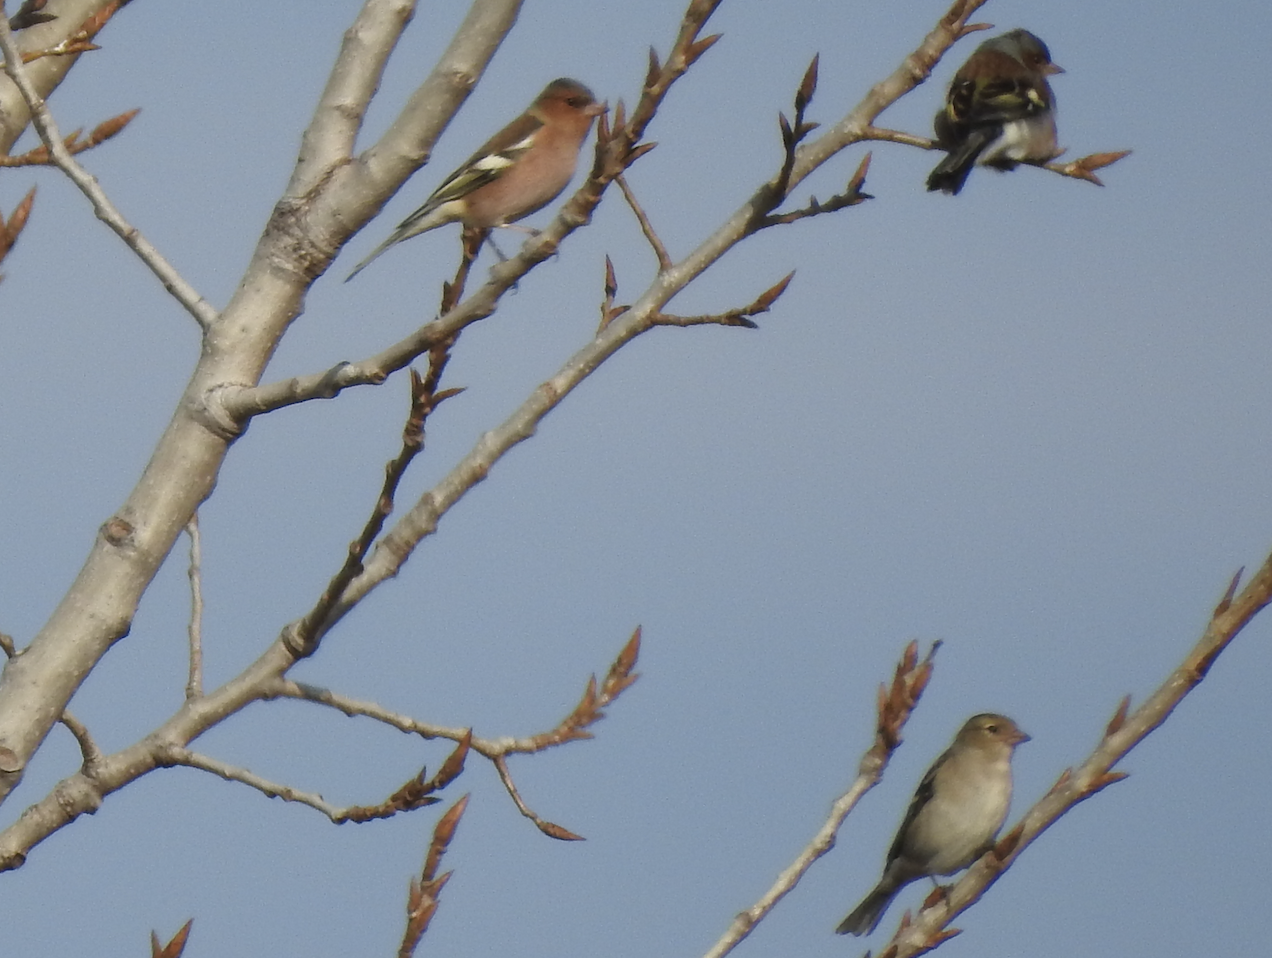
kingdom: Animalia
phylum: Chordata
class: Aves
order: Passeriformes
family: Fringillidae
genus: Fringilla
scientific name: Fringilla coelebs
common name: Common chaffinch
